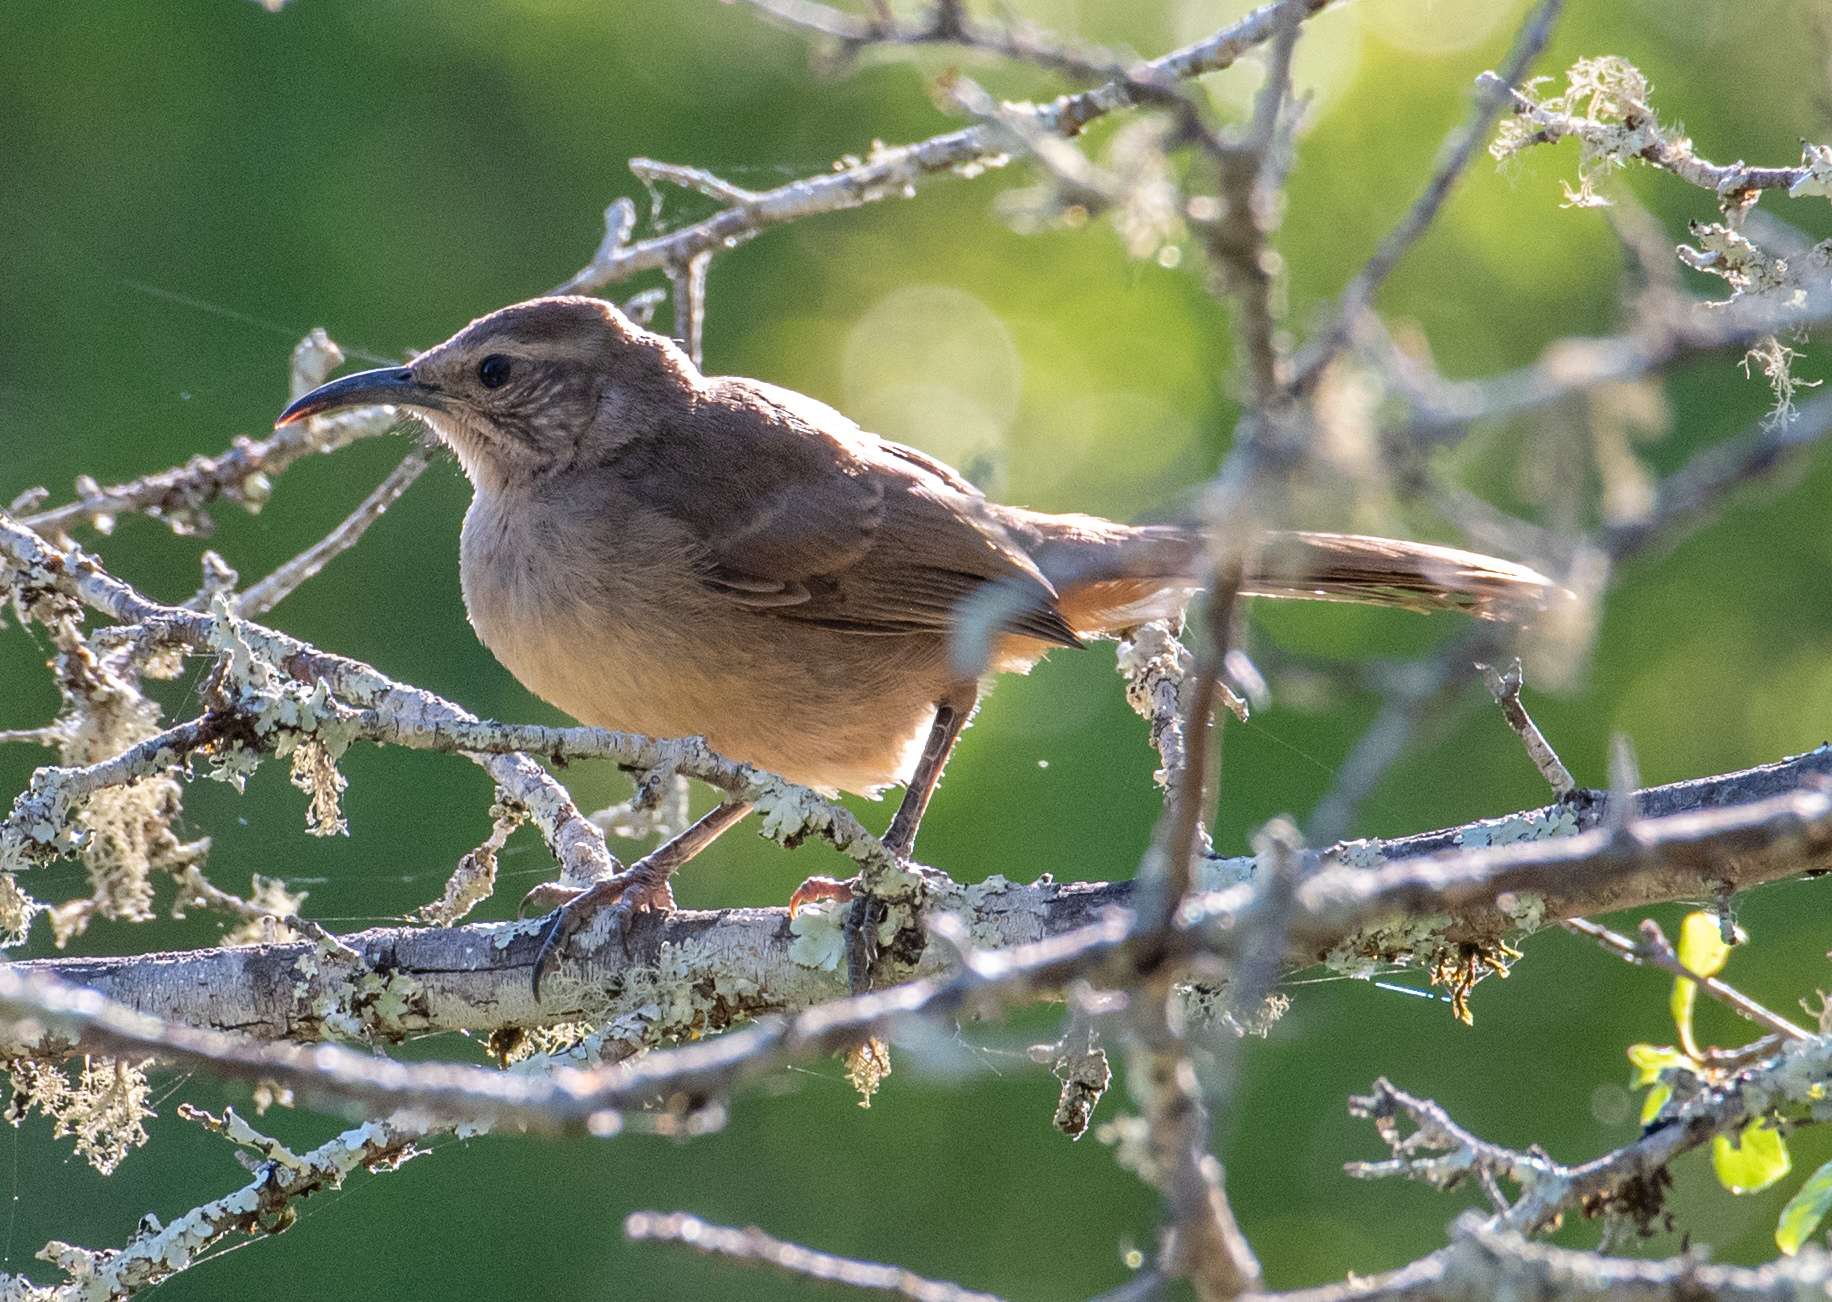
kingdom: Animalia
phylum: Chordata
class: Aves
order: Passeriformes
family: Mimidae
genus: Toxostoma
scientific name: Toxostoma redivivum
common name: California thrasher
